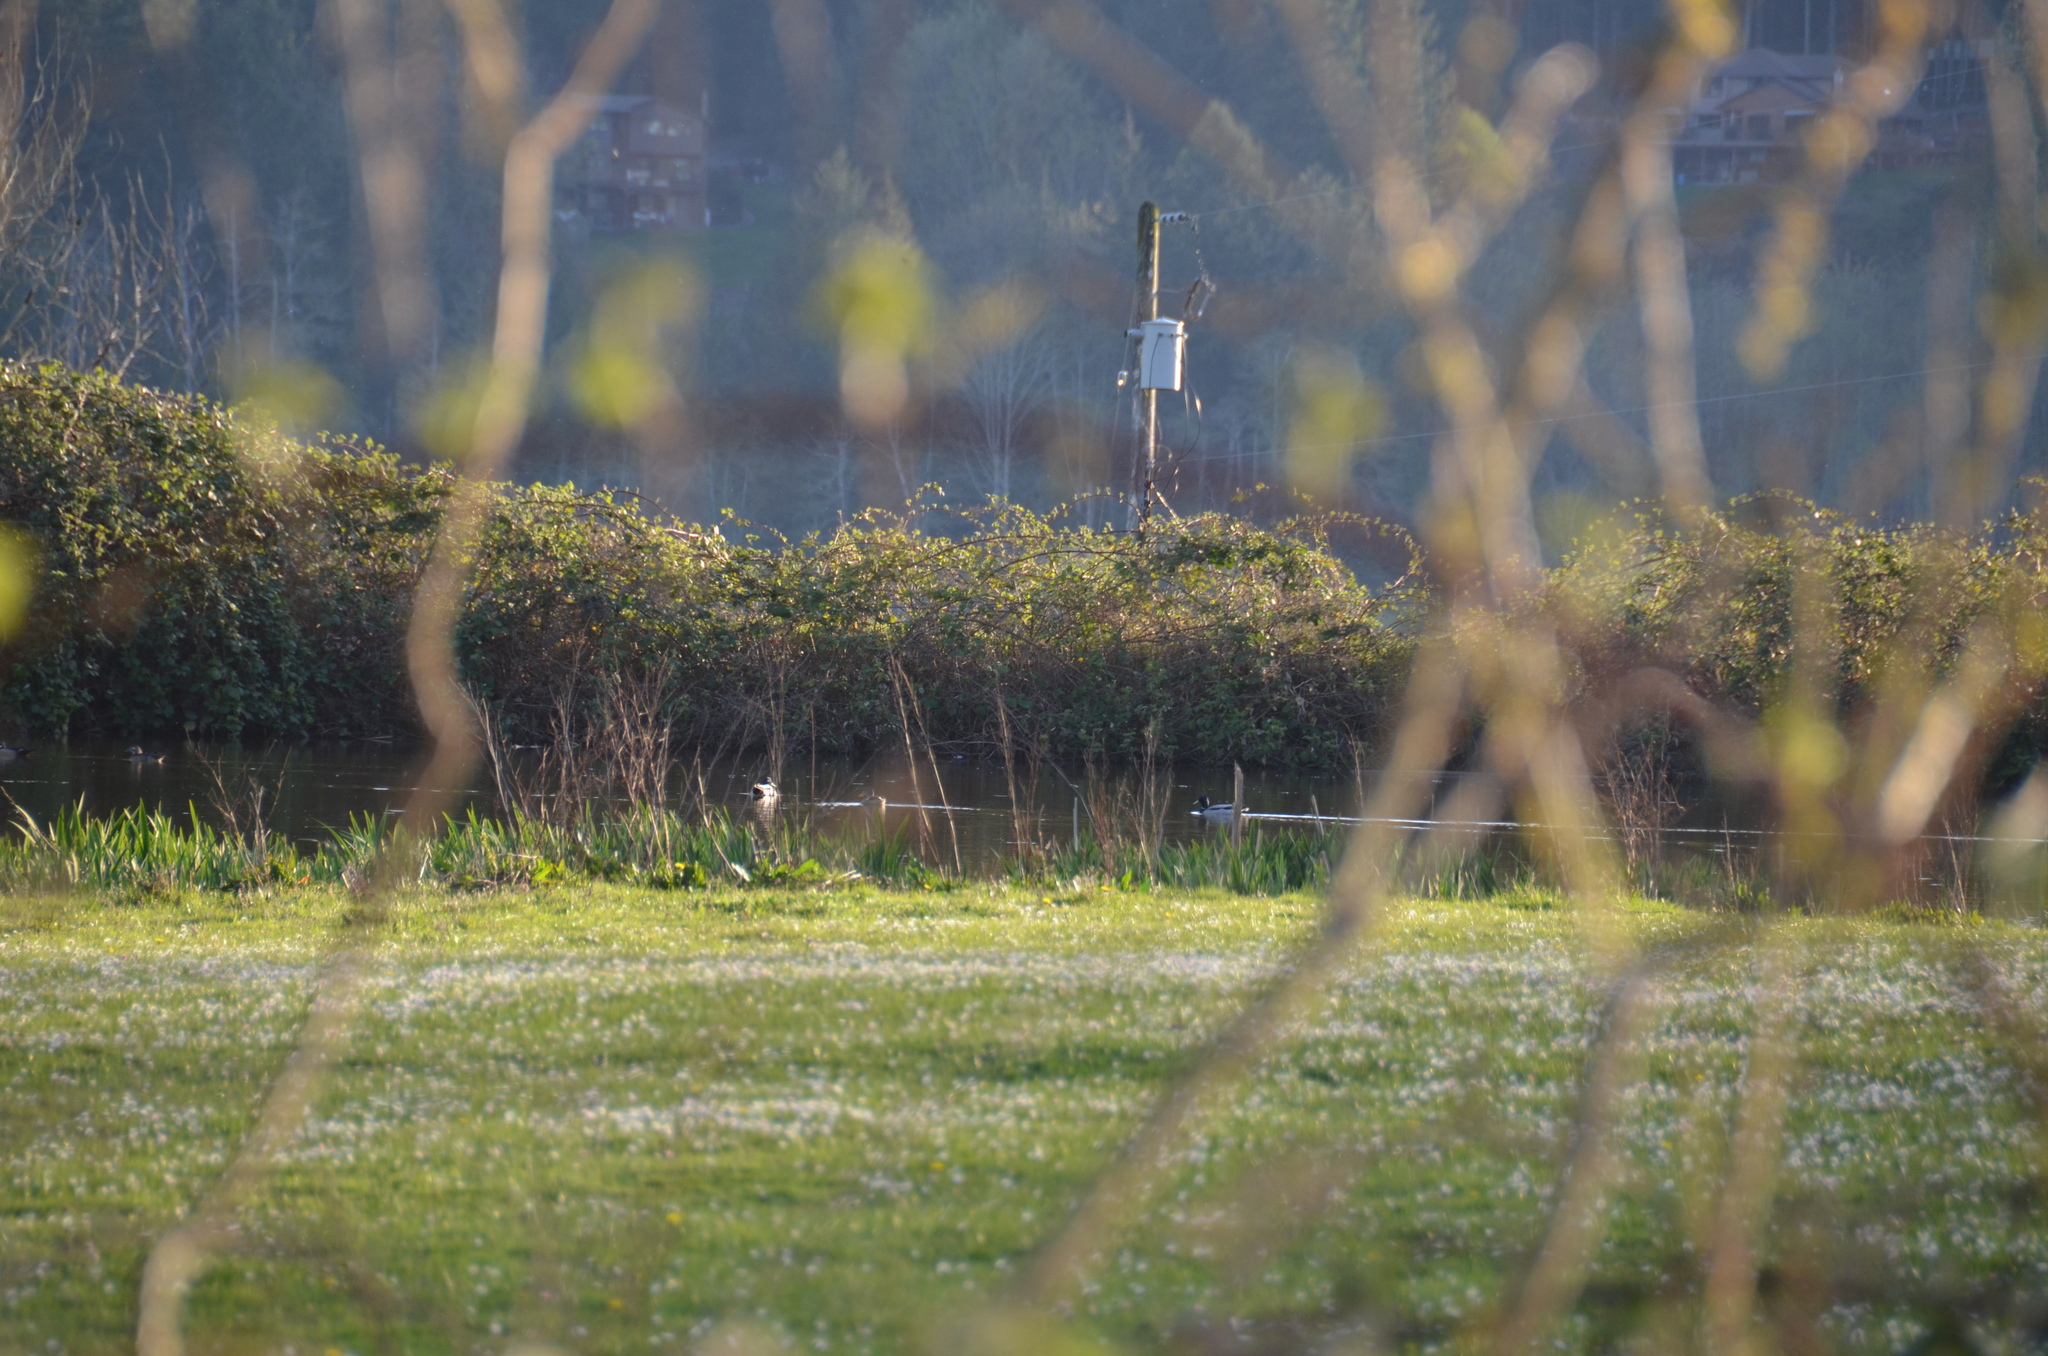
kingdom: Animalia
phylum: Chordata
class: Aves
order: Anseriformes
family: Anatidae
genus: Spatula
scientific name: Spatula clypeata
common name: Northern shoveler
